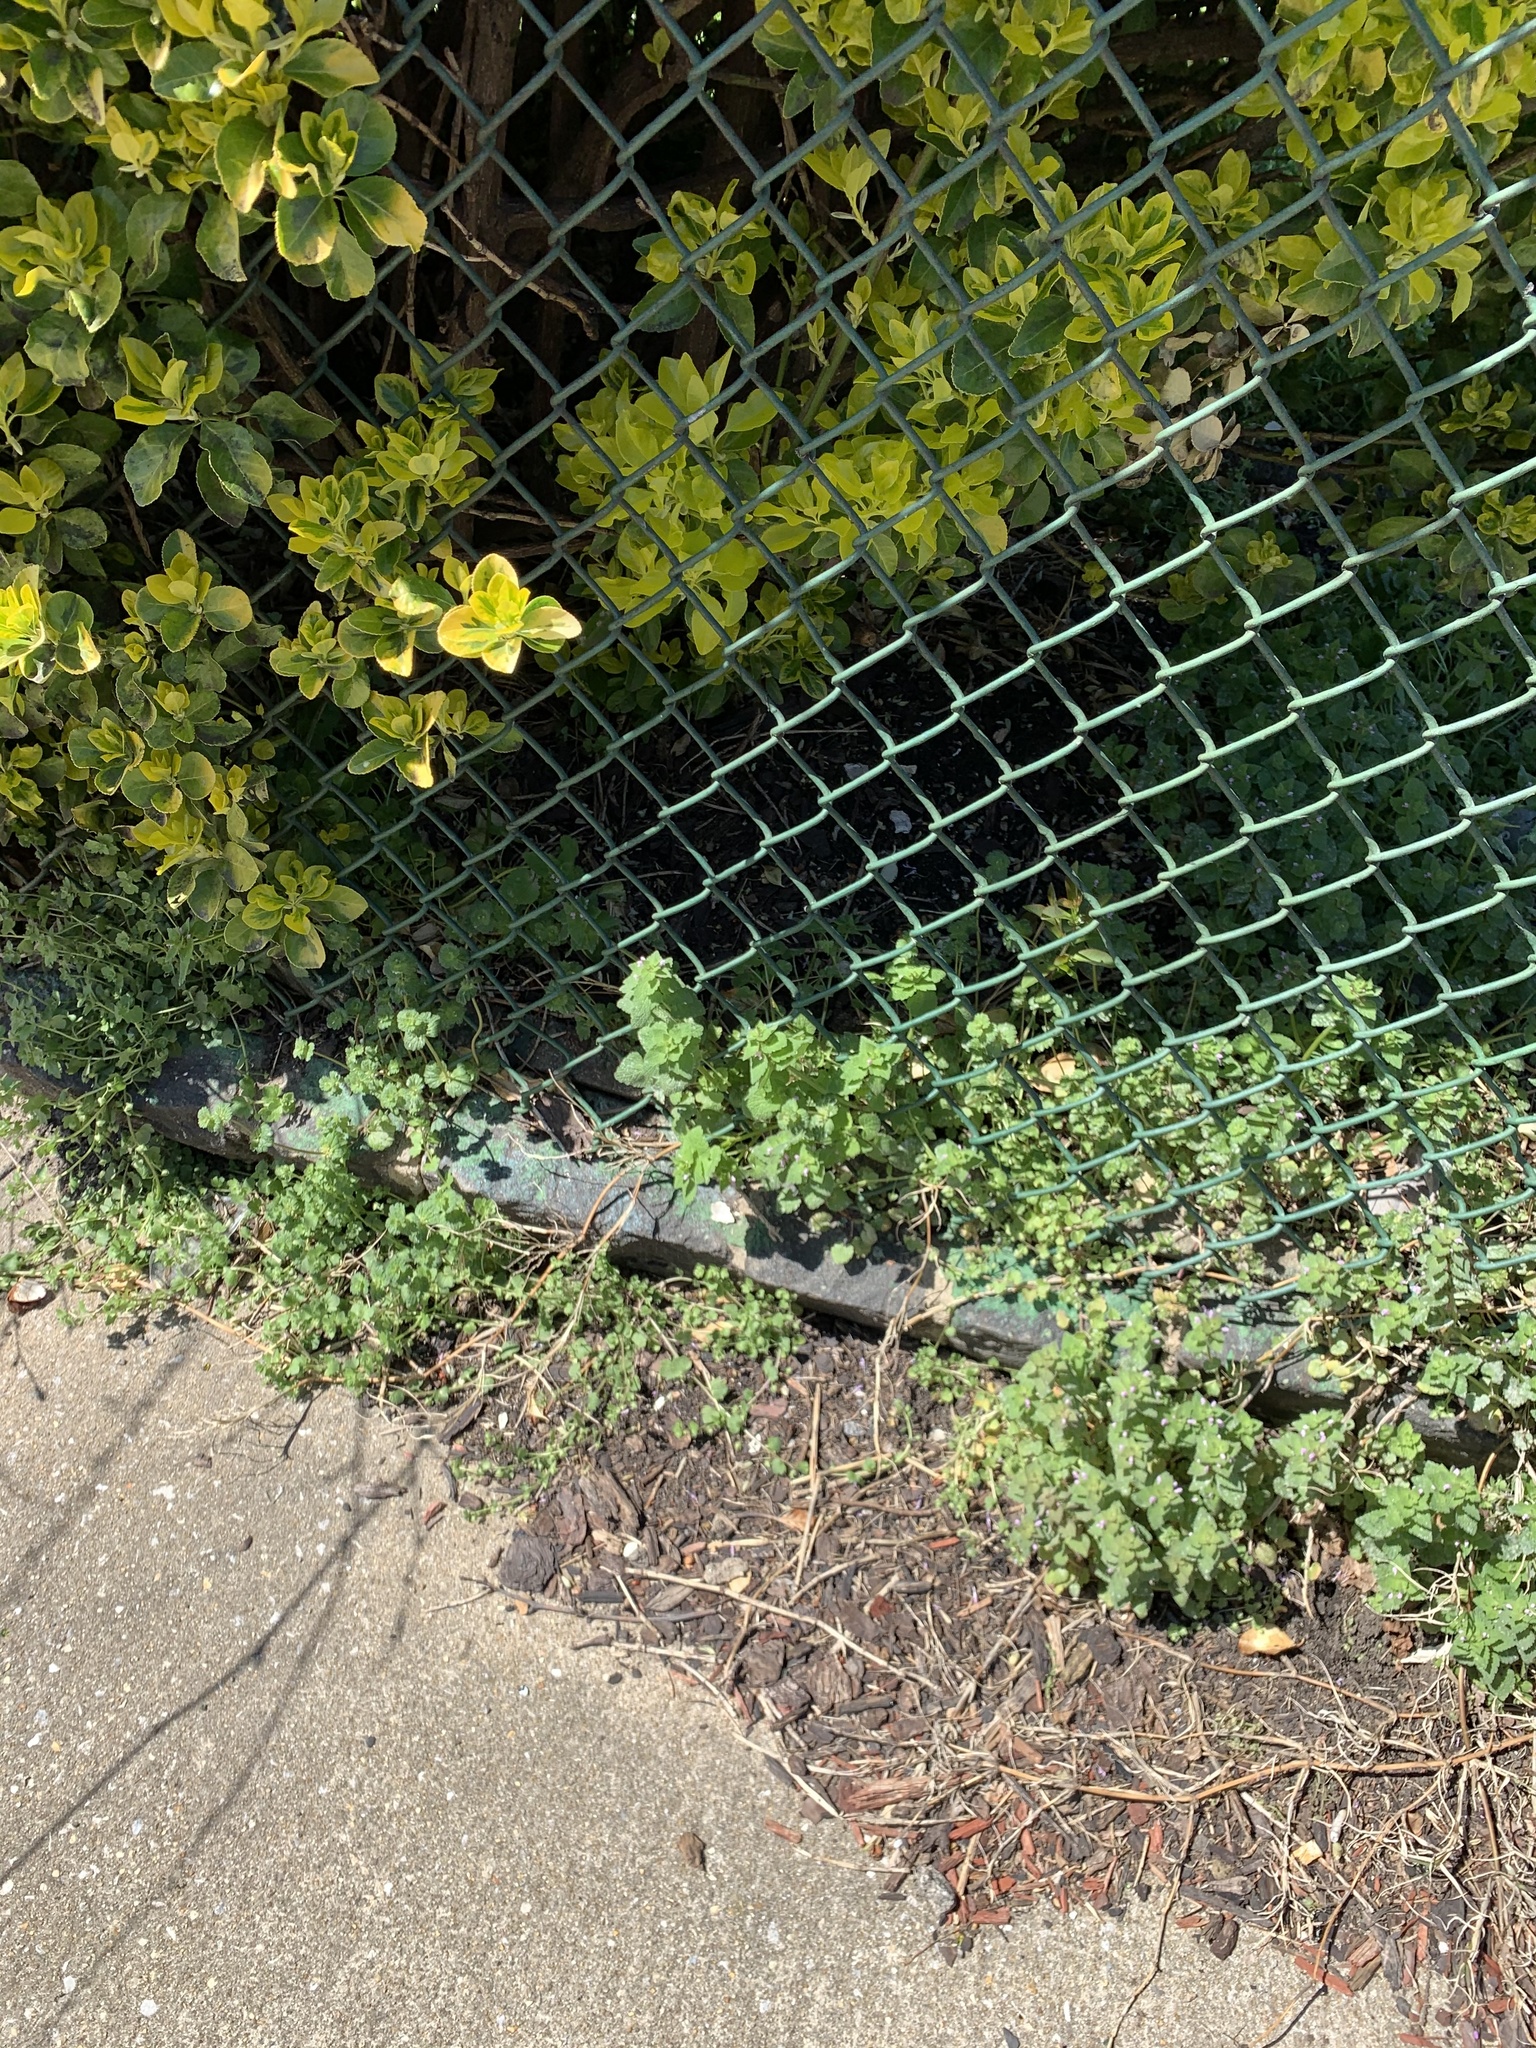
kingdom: Plantae
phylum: Tracheophyta
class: Magnoliopsida
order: Lamiales
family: Lamiaceae
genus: Lamium
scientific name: Lamium purpureum
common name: Red dead-nettle
